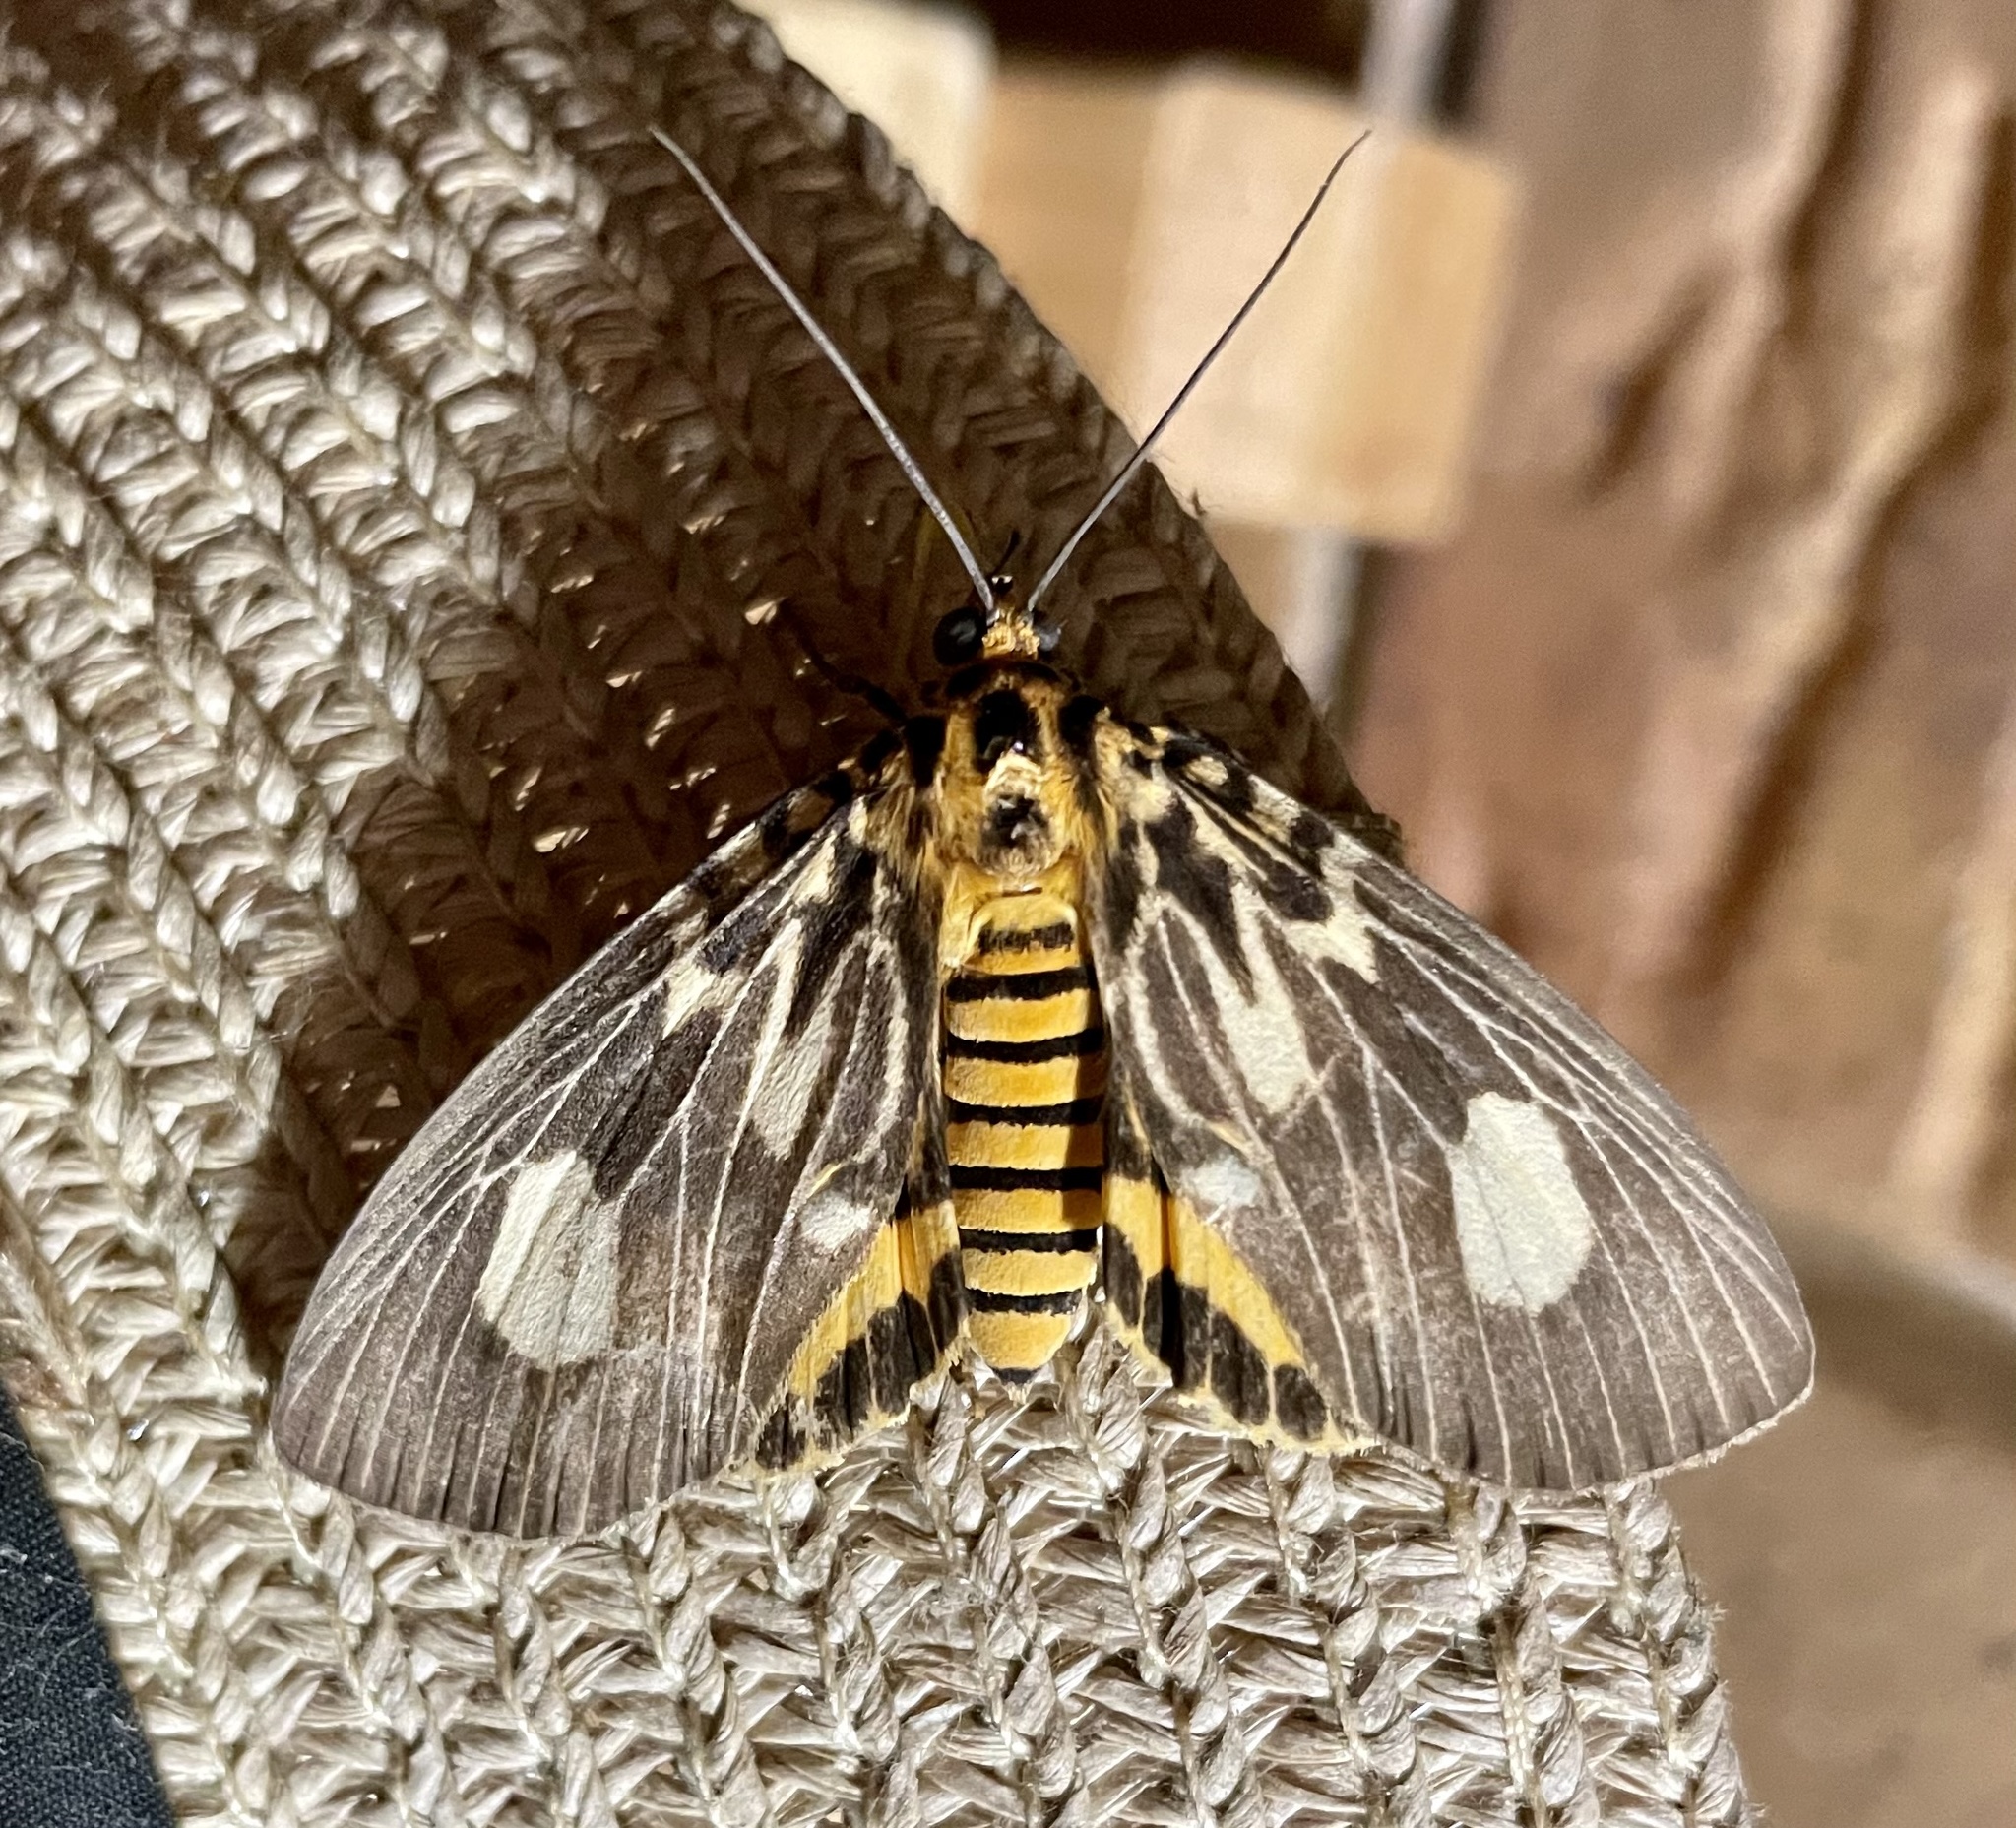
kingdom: Animalia
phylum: Arthropoda
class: Insecta
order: Lepidoptera
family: Erebidae
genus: Asota
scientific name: Asota plagiata
